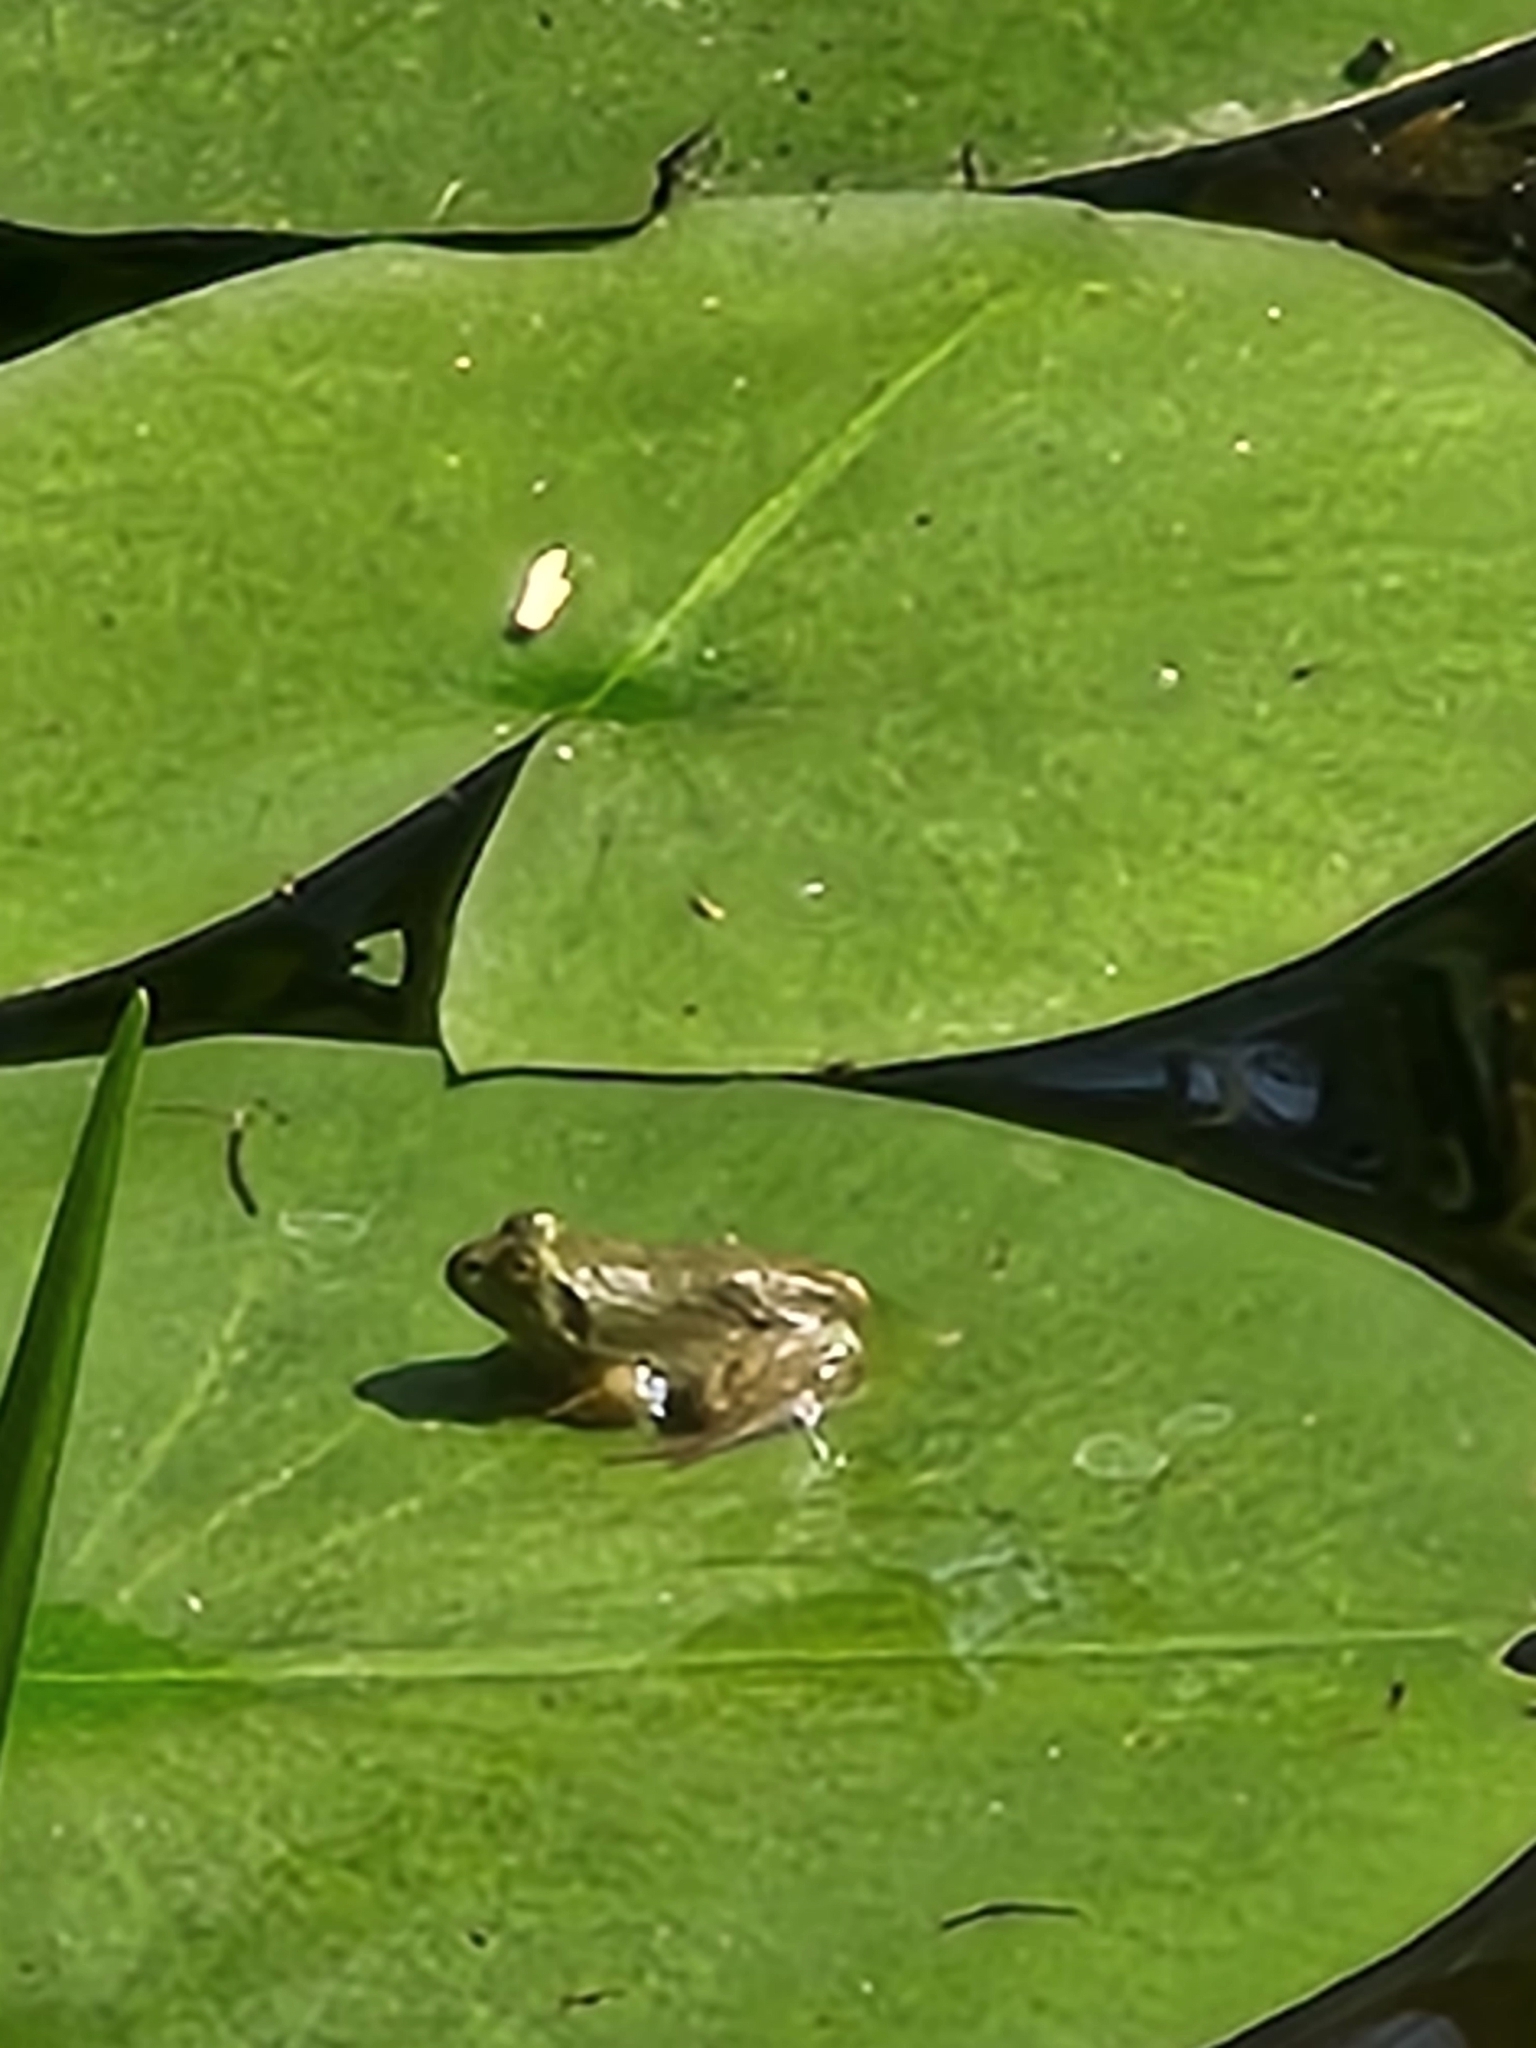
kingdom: Animalia
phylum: Chordata
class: Amphibia
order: Anura
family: Ranidae
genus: Lithobates
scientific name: Lithobates clamitans
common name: Green frog
